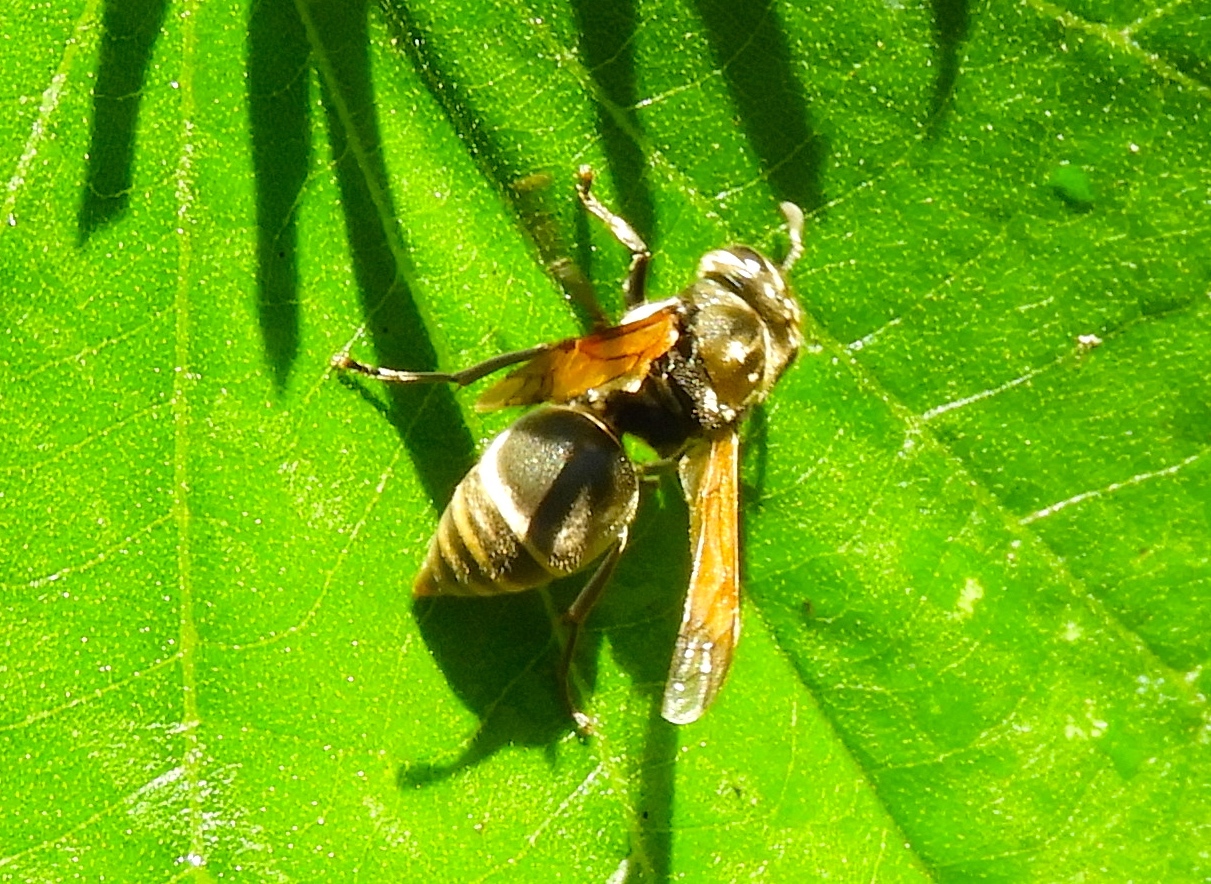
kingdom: Animalia
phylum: Arthropoda
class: Insecta
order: Hymenoptera
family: Vespidae
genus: Brachygastra
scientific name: Brachygastra mellifica
